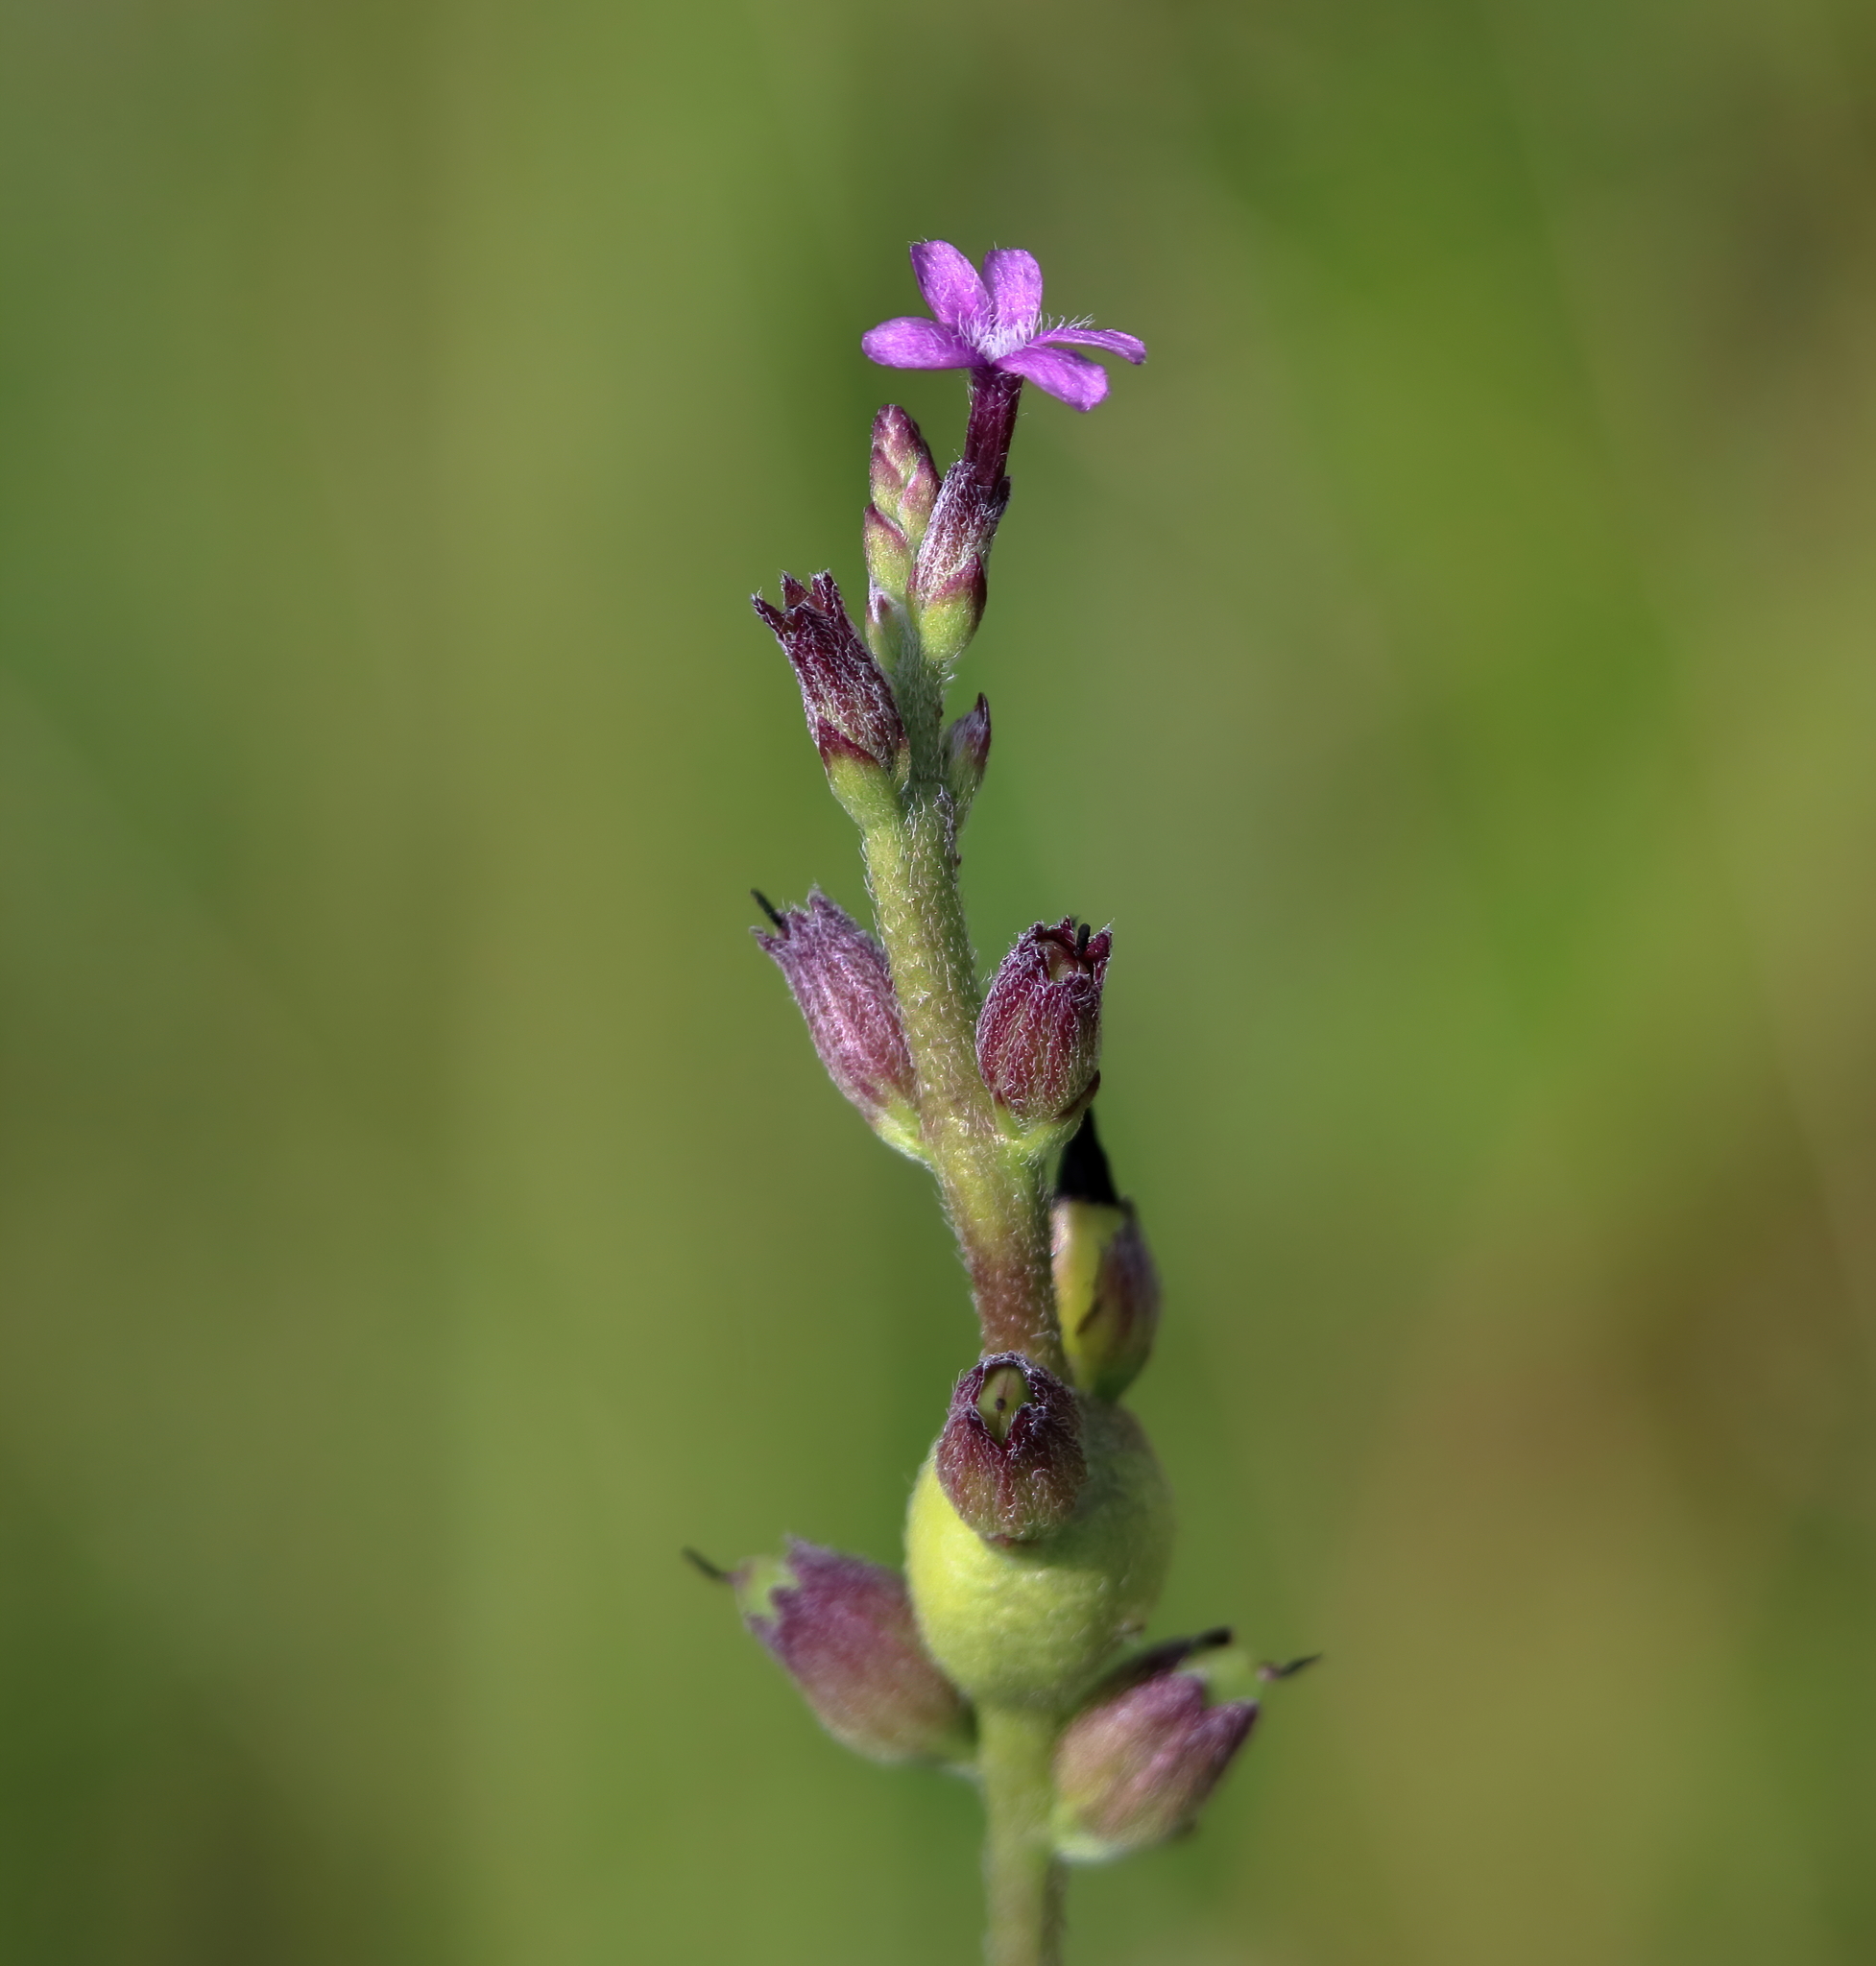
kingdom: Plantae
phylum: Tracheophyta
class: Magnoliopsida
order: Lamiales
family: Orobanchaceae
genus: Buchnera
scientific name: Buchnera floridana
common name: Florida bluehearts
